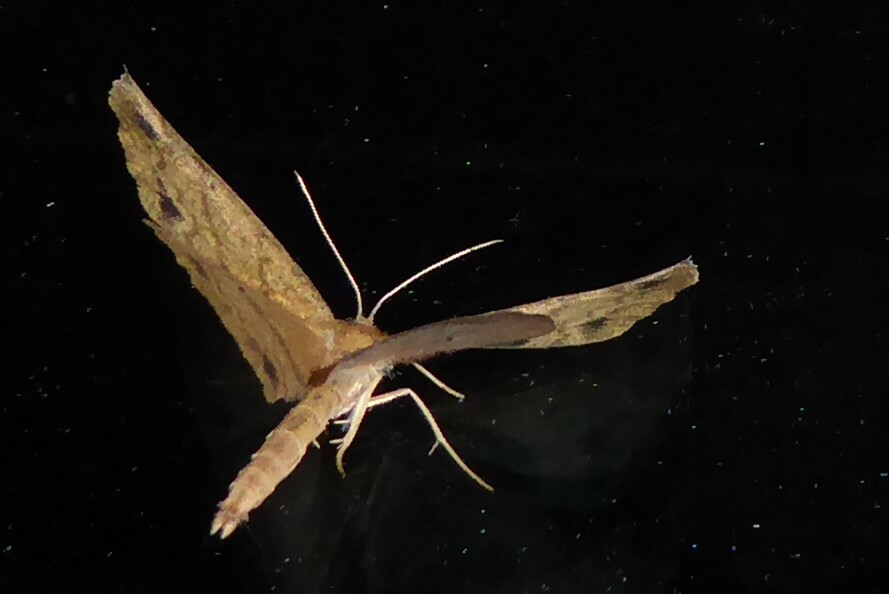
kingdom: Animalia
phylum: Arthropoda
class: Insecta
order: Lepidoptera
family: Geometridae
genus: Xyridacma
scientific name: Xyridacma veronicae
